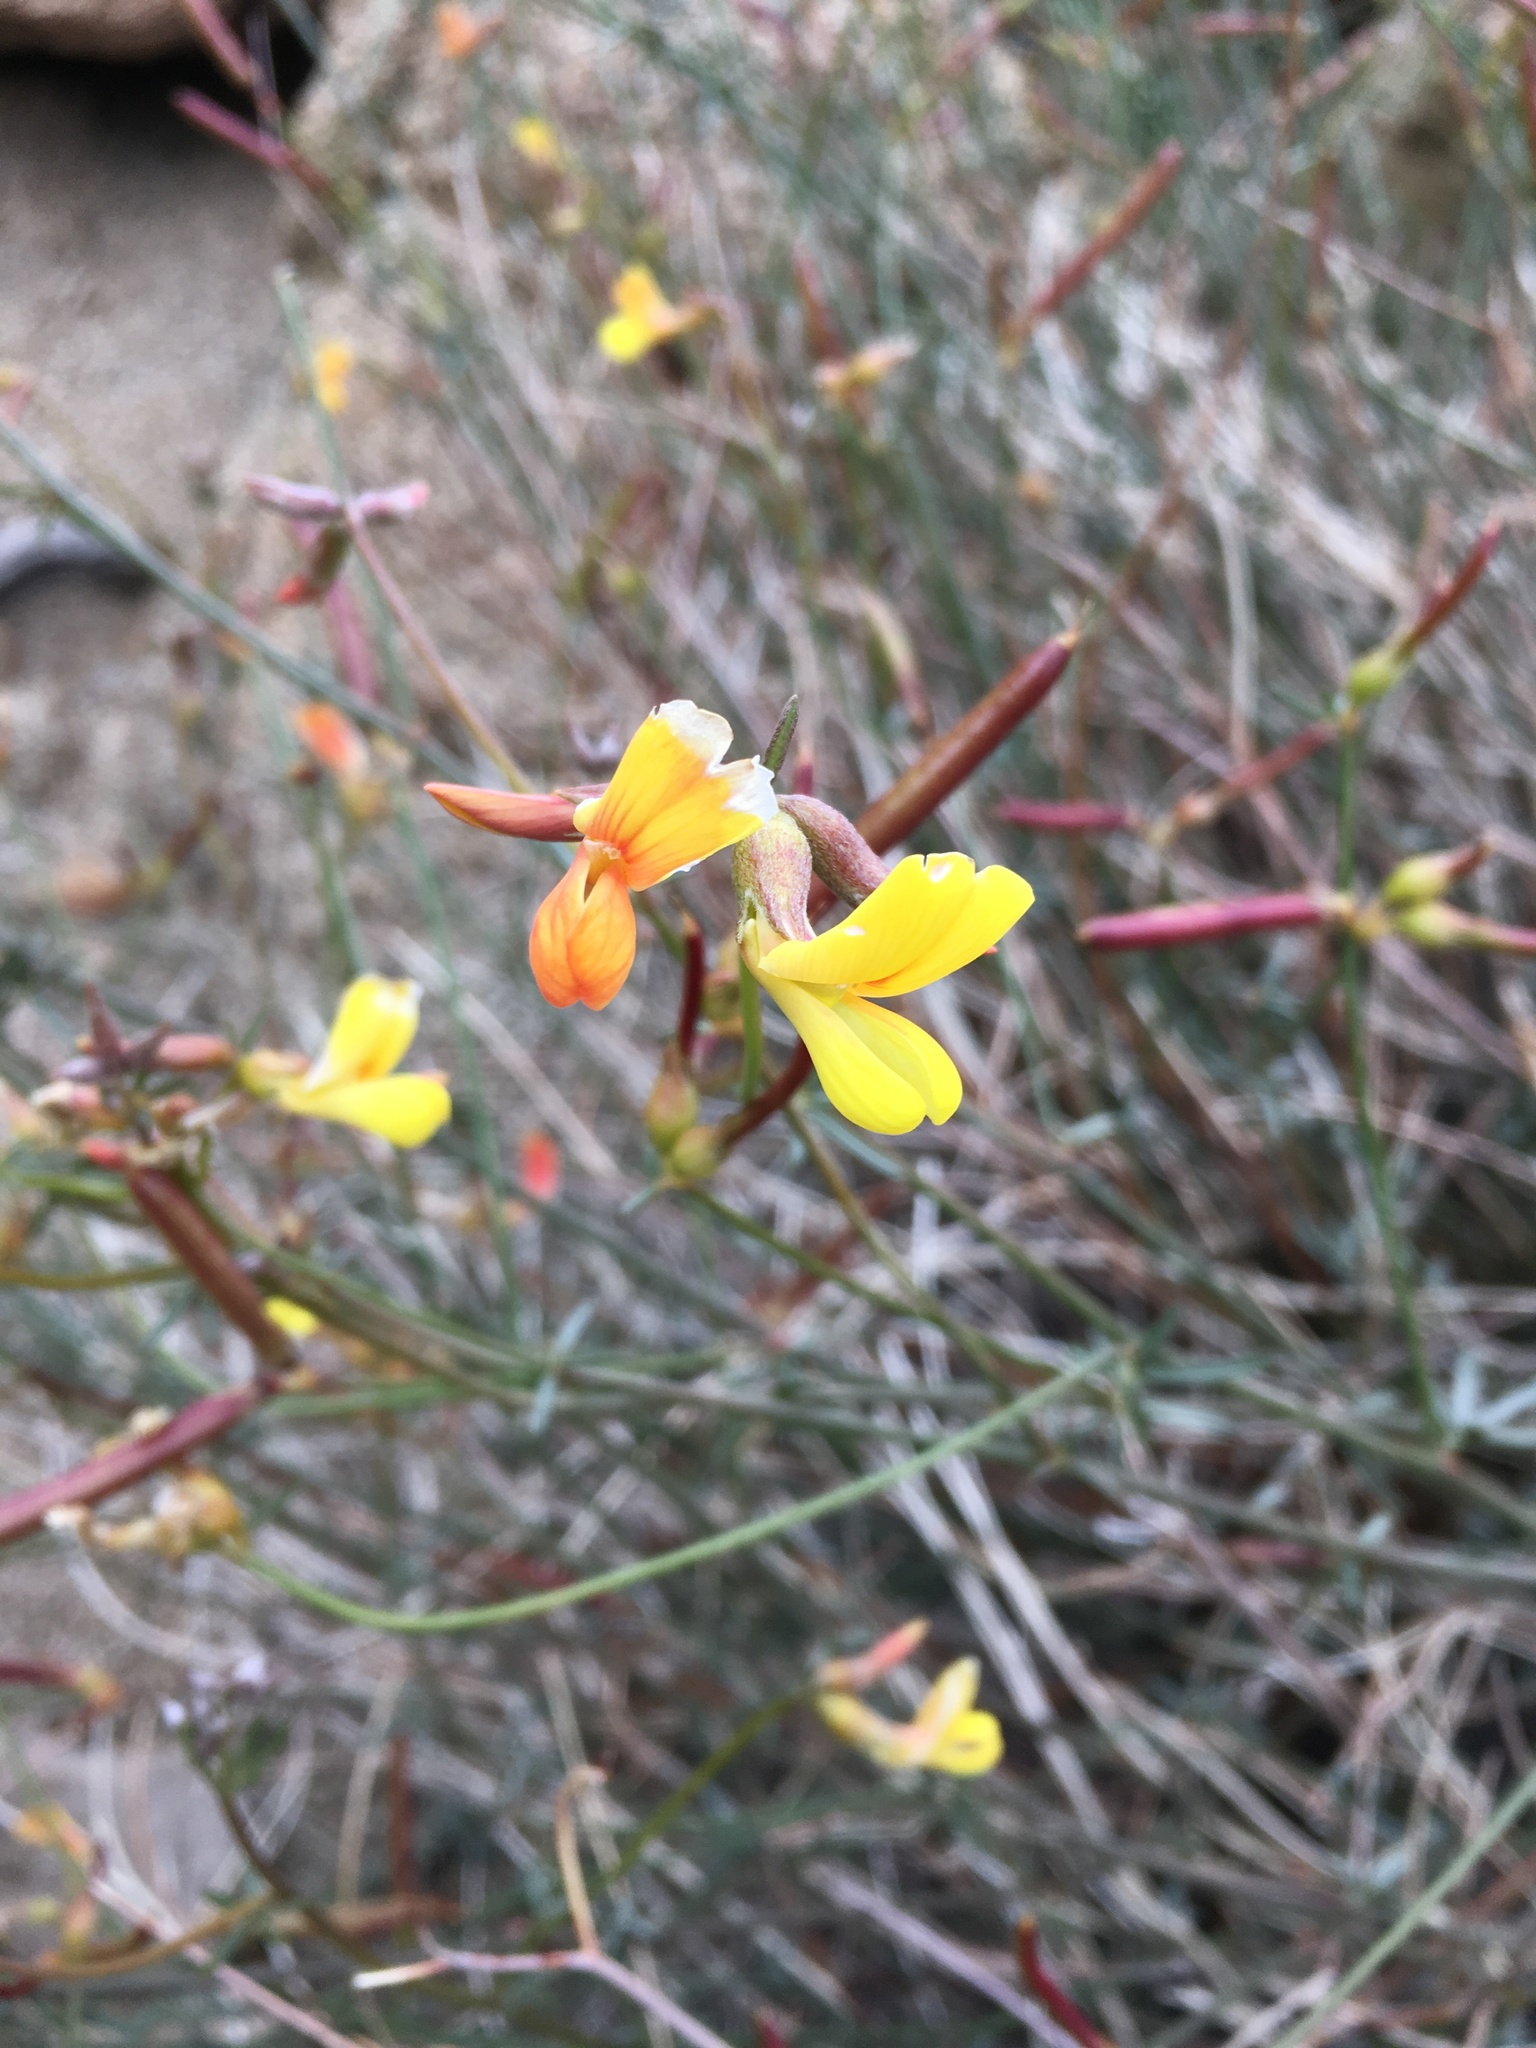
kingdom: Plantae
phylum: Tracheophyta
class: Magnoliopsida
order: Fabales
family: Fabaceae
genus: Acmispon
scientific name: Acmispon rigidus
